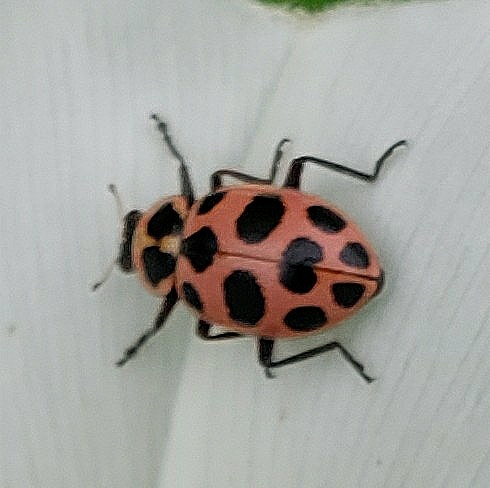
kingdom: Animalia
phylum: Arthropoda
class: Insecta
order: Coleoptera
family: Coccinellidae
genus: Coleomegilla
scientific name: Coleomegilla maculata
